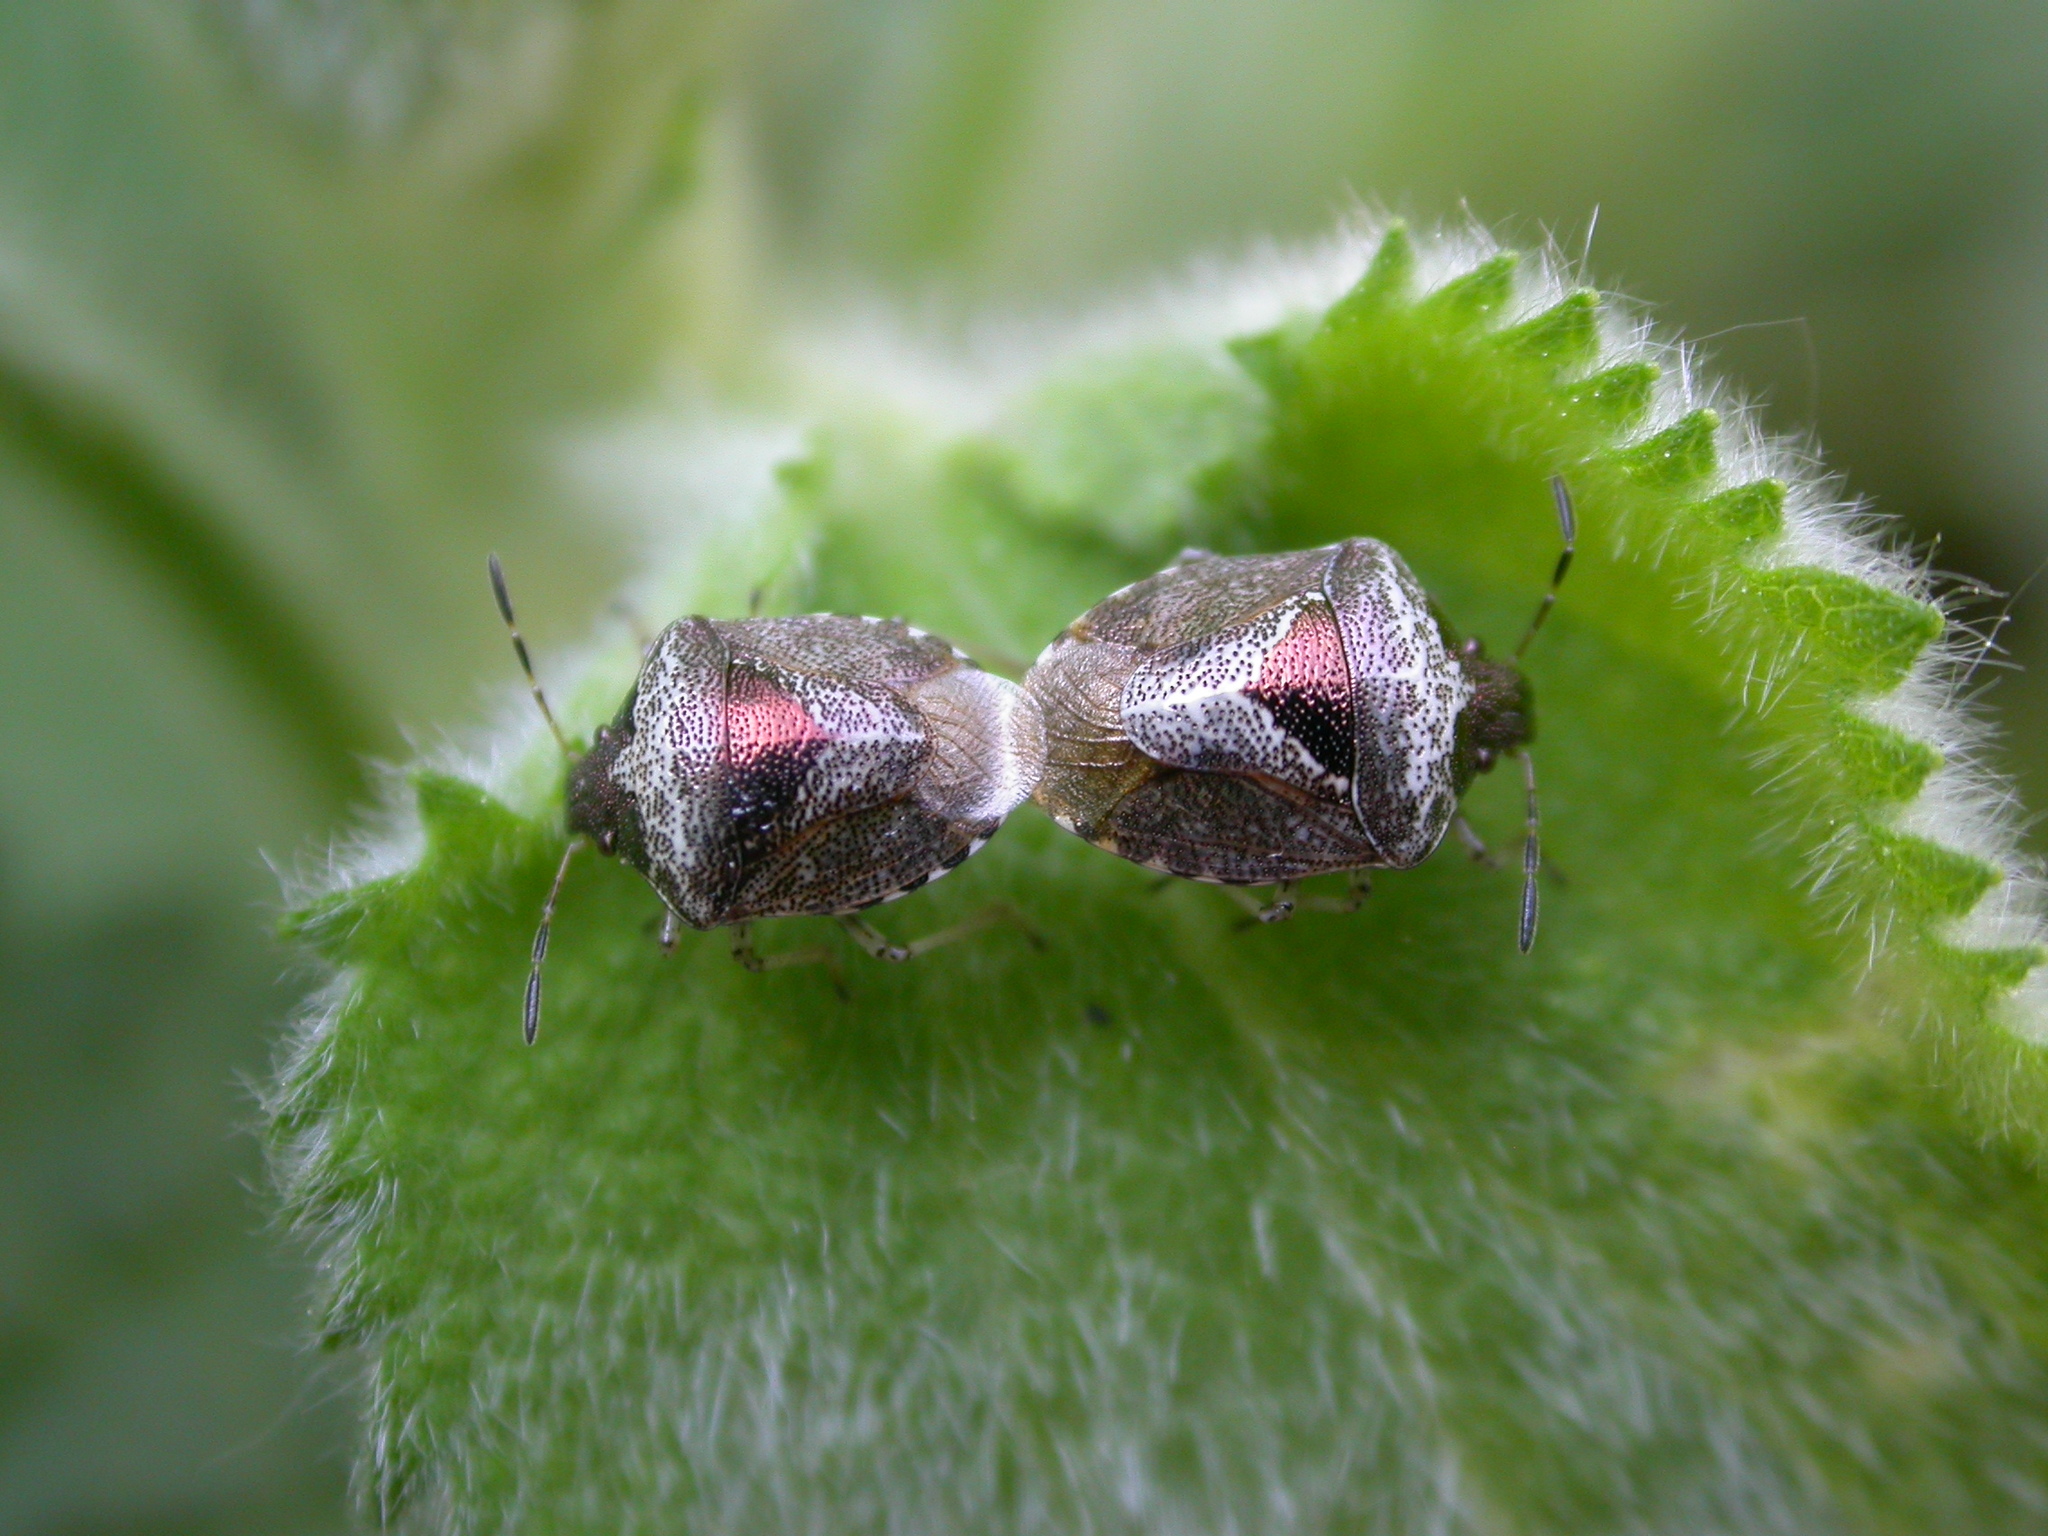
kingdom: Animalia
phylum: Arthropoda
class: Insecta
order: Hemiptera
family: Pentatomidae
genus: Eysarcoris
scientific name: Eysarcoris venustissimus
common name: Woundwort shieldbug
